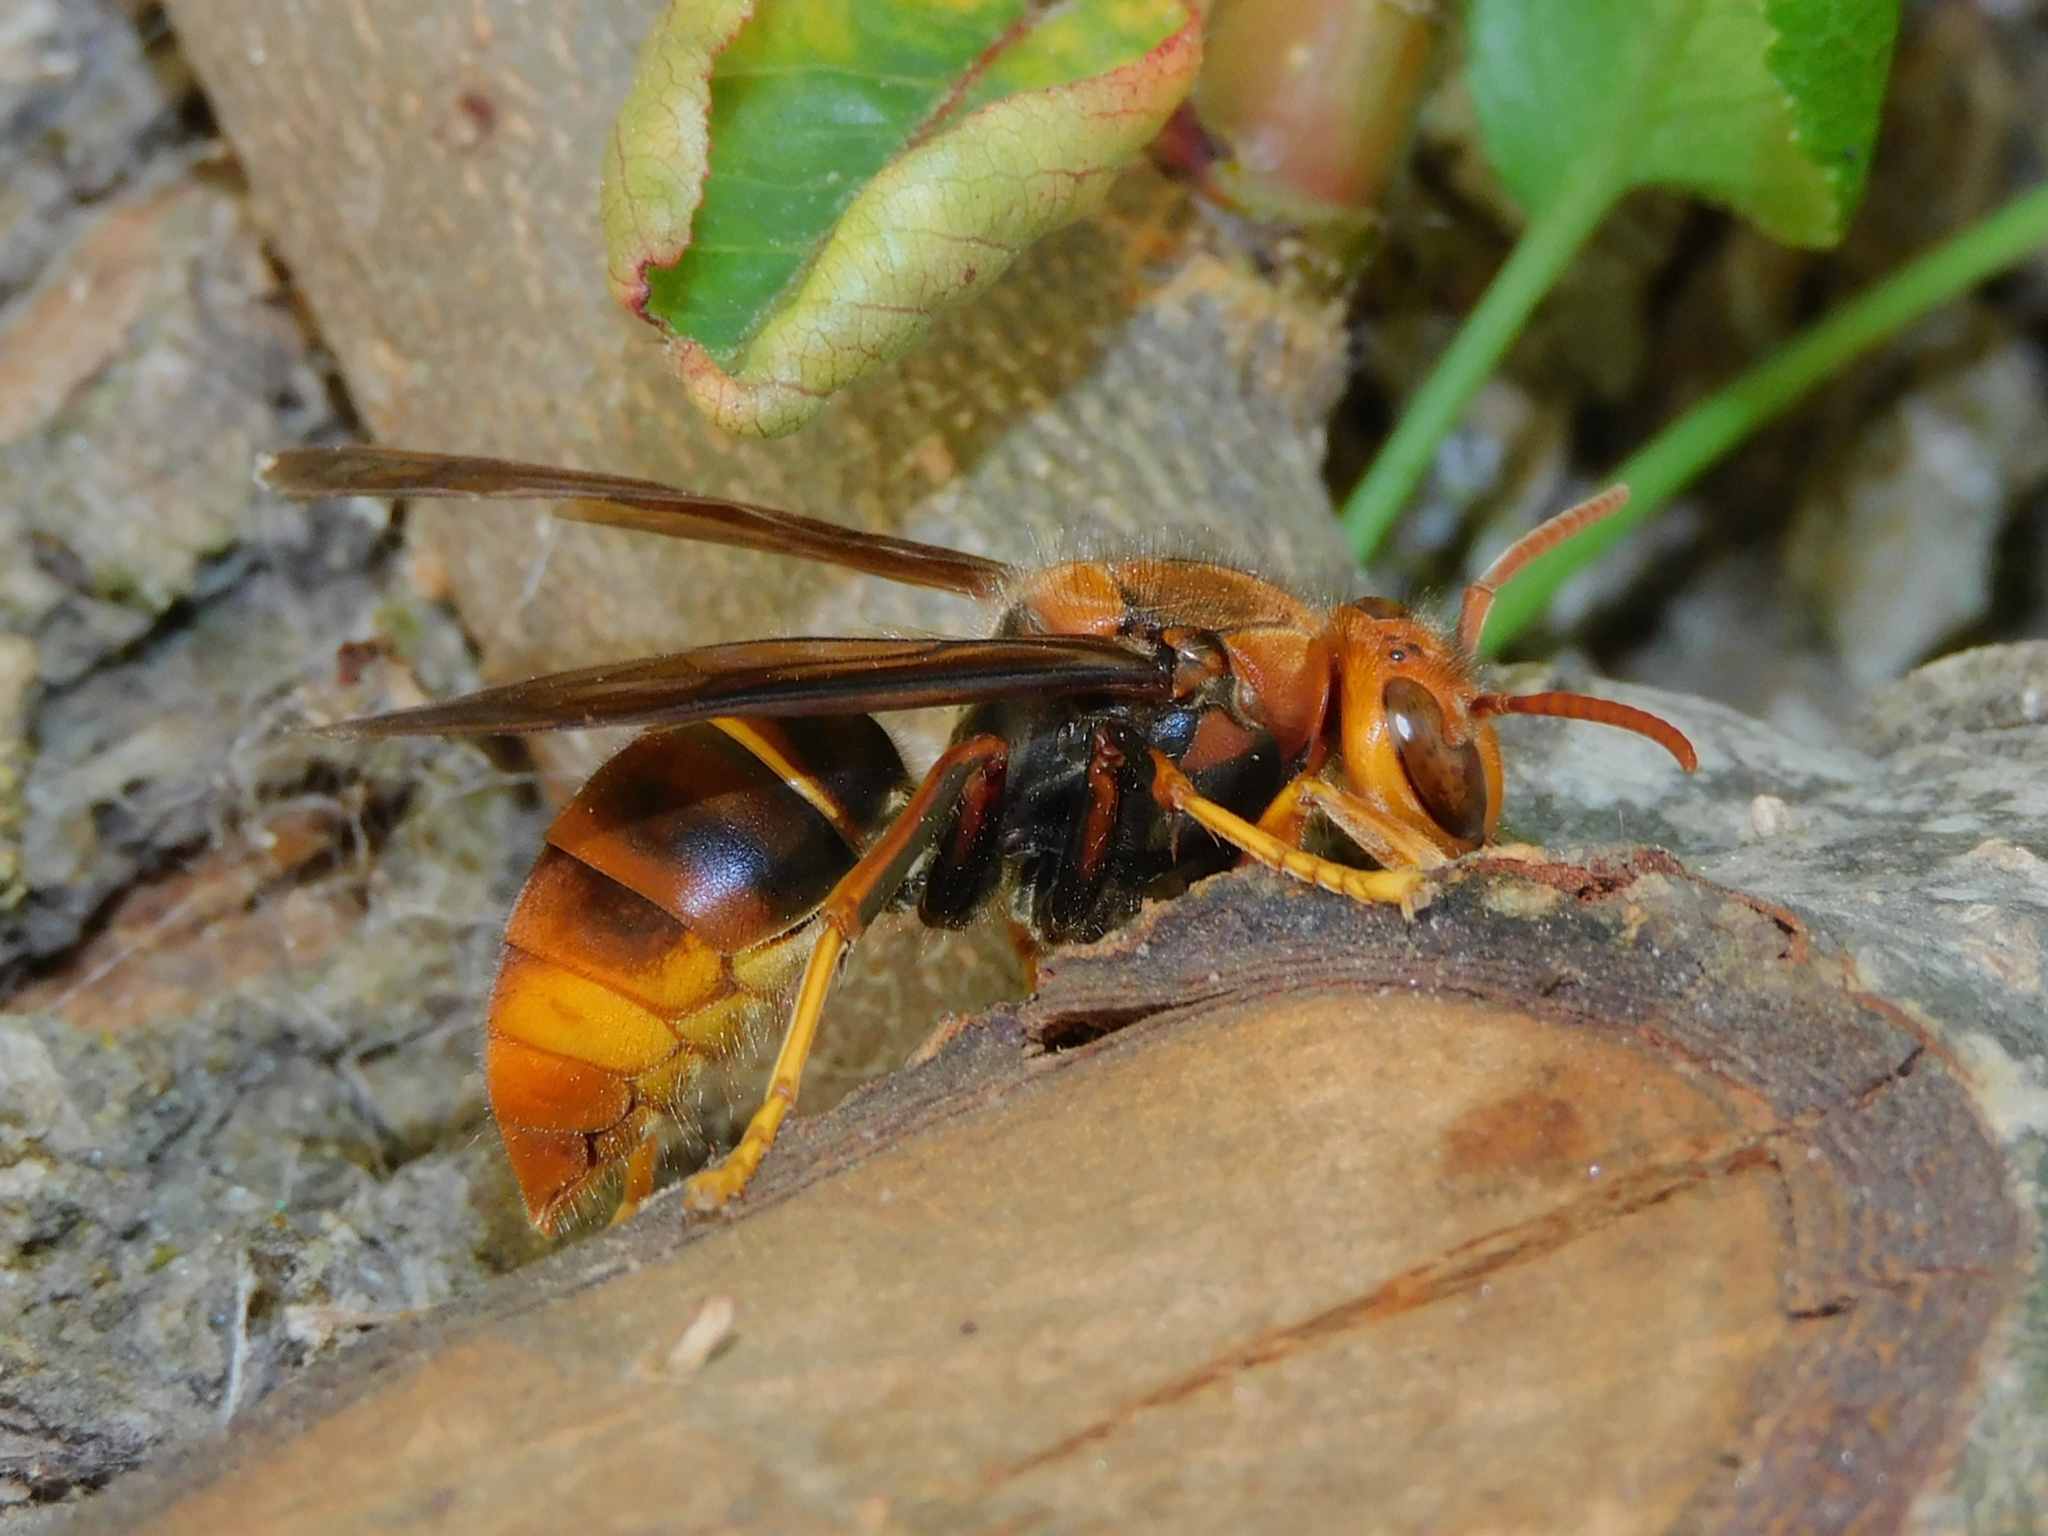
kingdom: Animalia
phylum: Arthropoda
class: Insecta
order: Hymenoptera
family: Vespidae
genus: Vespa
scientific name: Vespa velutina
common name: Asian hornet
